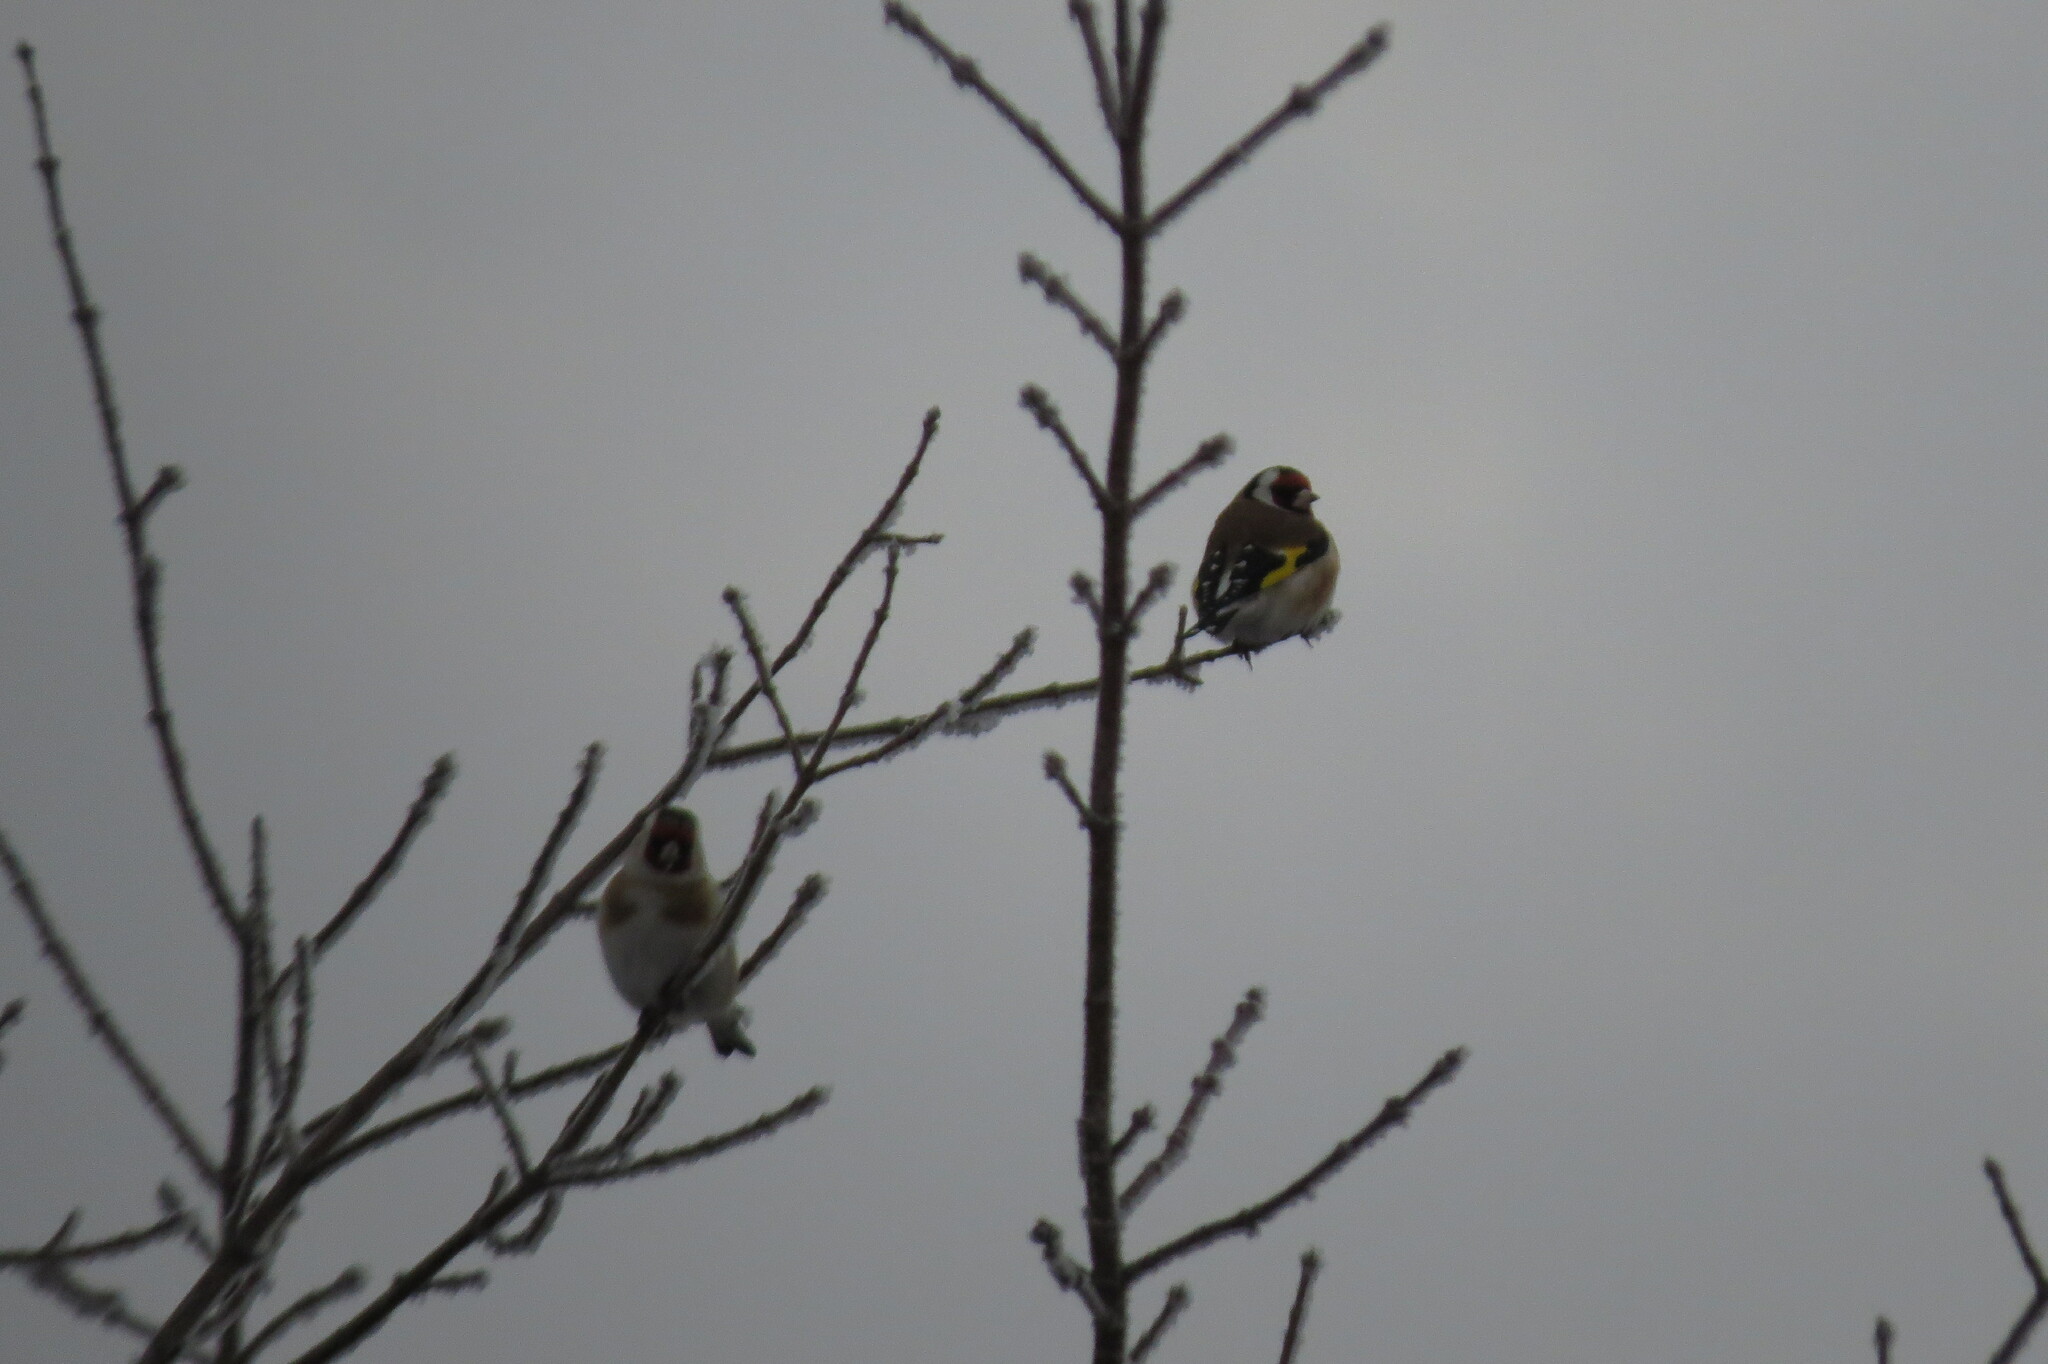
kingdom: Animalia
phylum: Chordata
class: Aves
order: Passeriformes
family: Fringillidae
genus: Carduelis
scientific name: Carduelis carduelis
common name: European goldfinch
